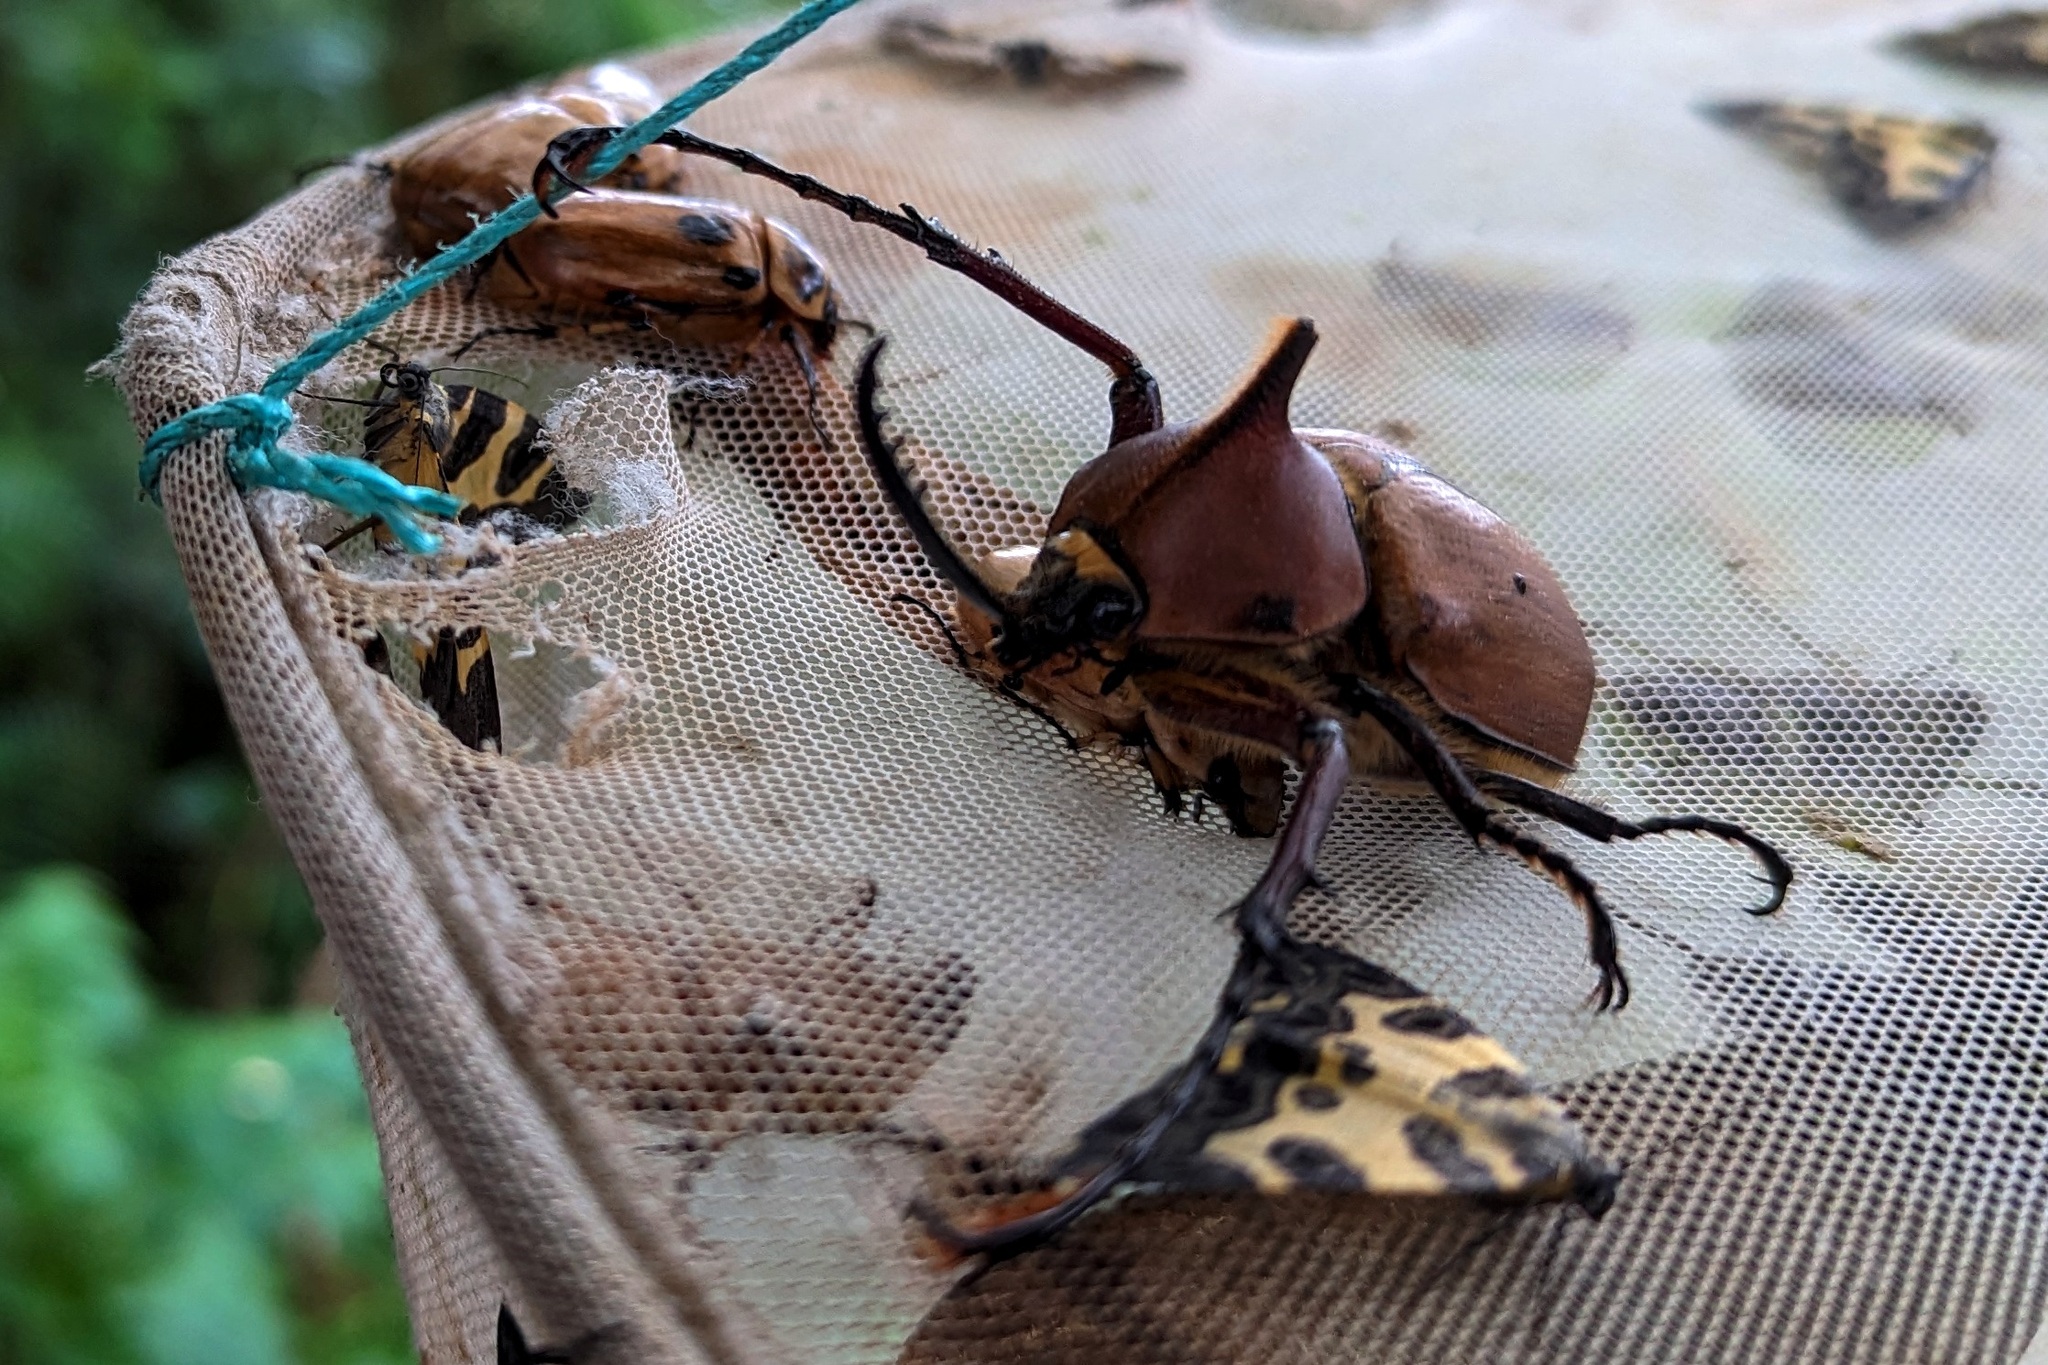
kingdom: Animalia
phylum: Arthropoda
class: Insecta
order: Coleoptera
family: Scarabaeidae
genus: Golofa
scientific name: Golofa eacus
